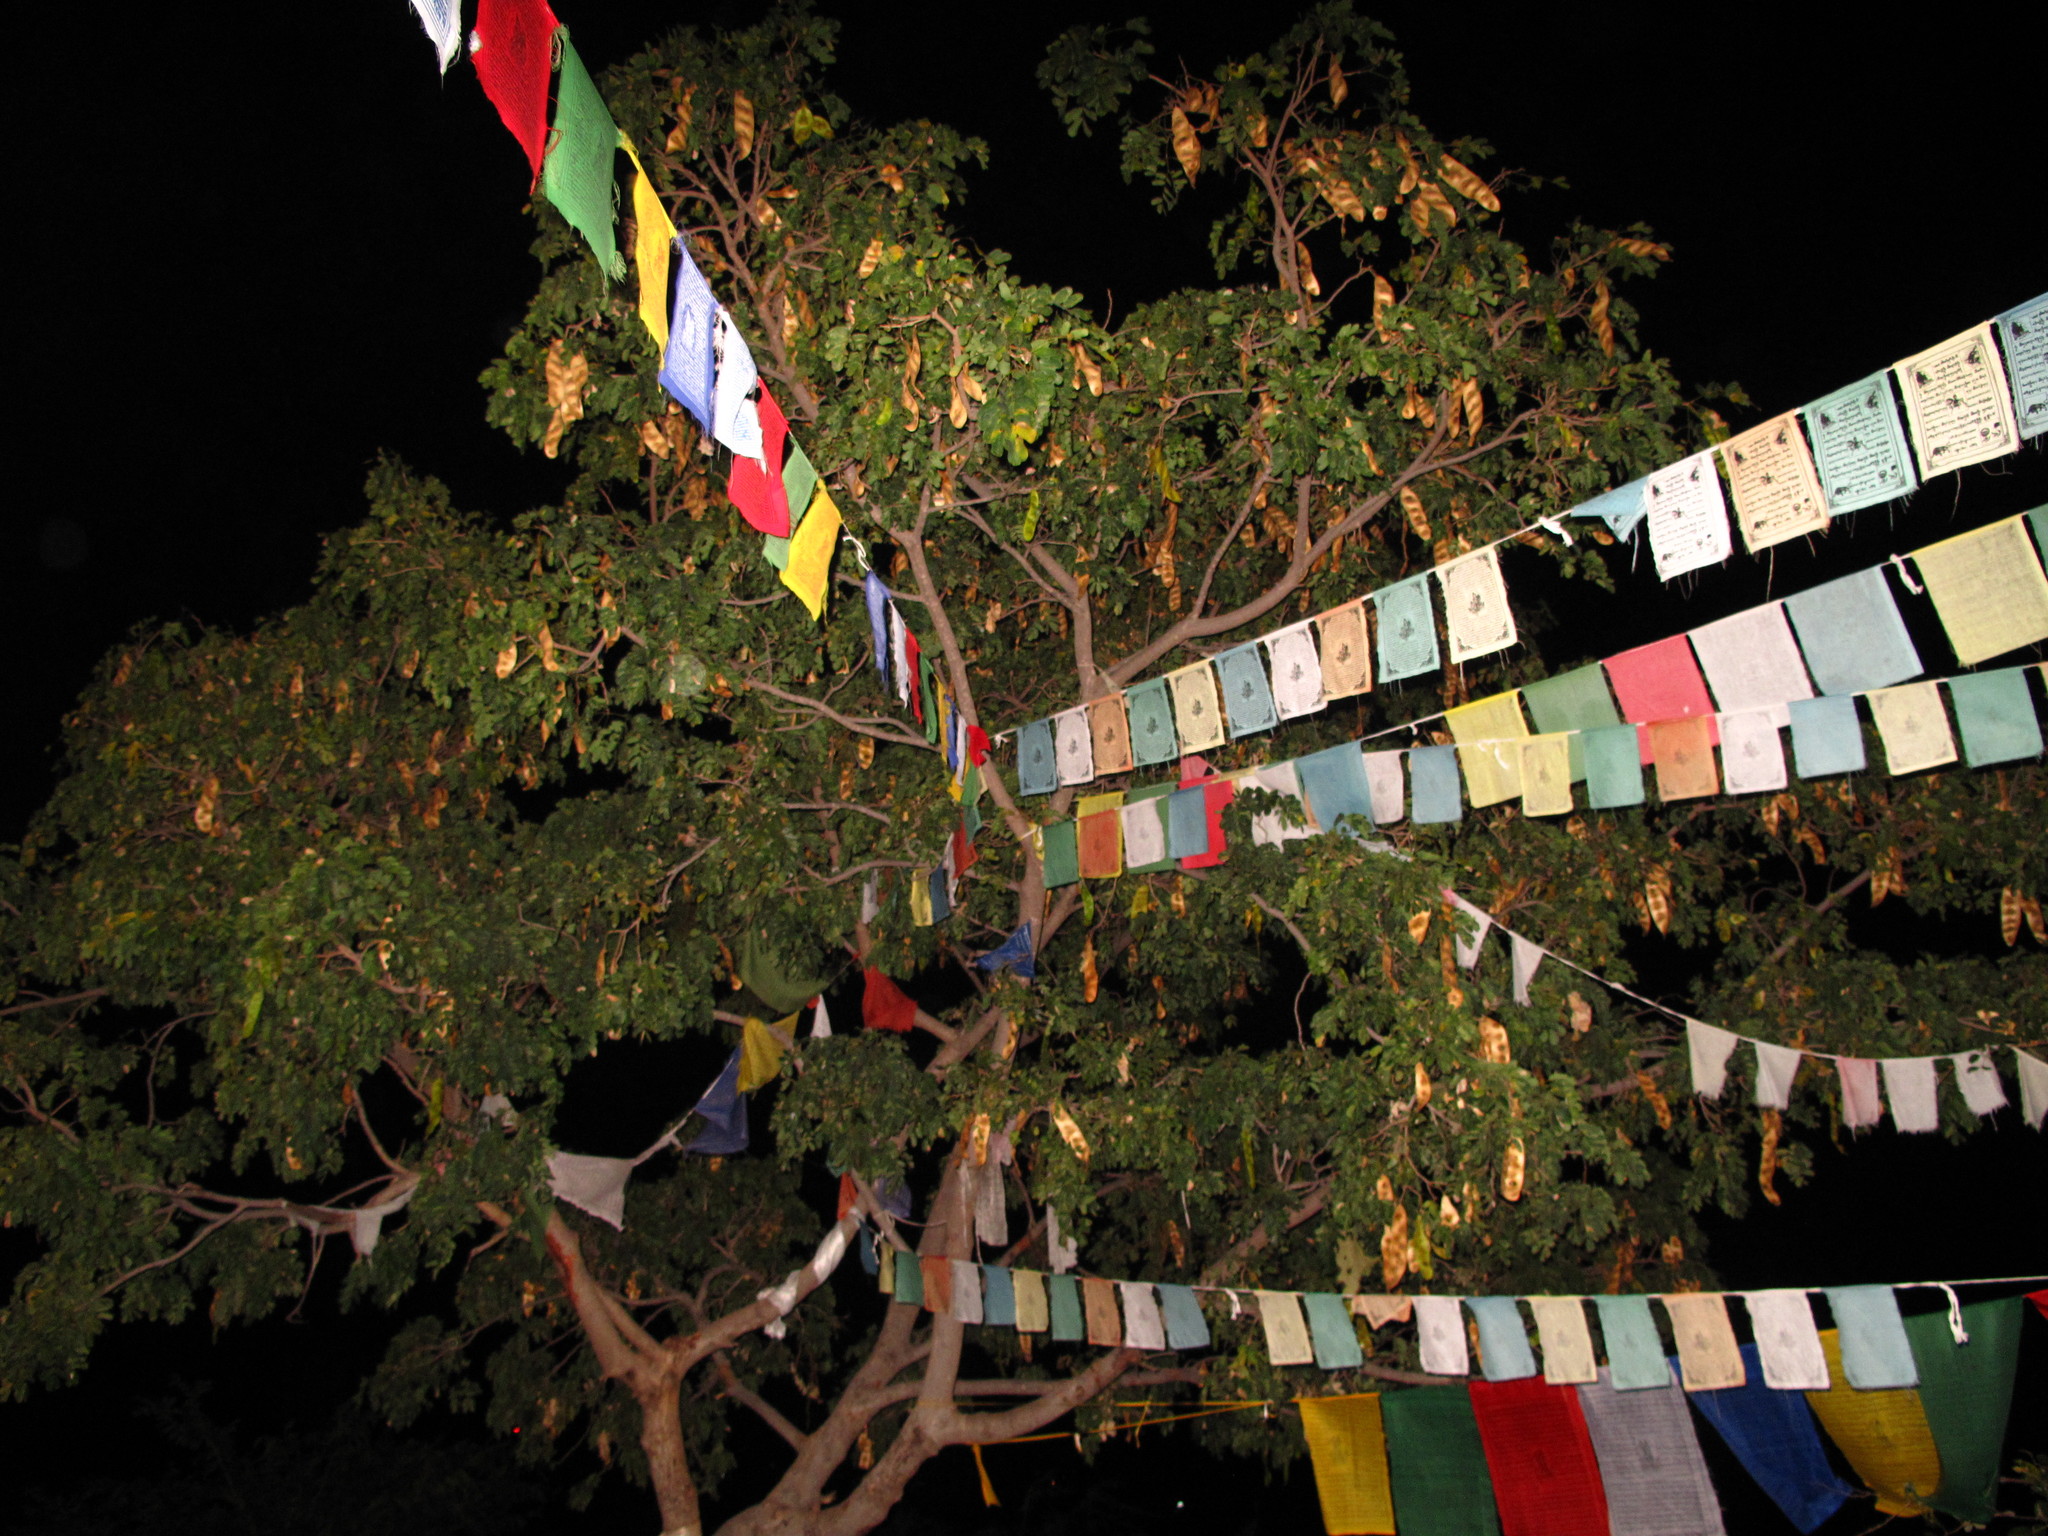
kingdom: Plantae
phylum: Tracheophyta
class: Magnoliopsida
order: Fabales
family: Fabaceae
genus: Tamarindus
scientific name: Tamarindus indica
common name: Tamarind
